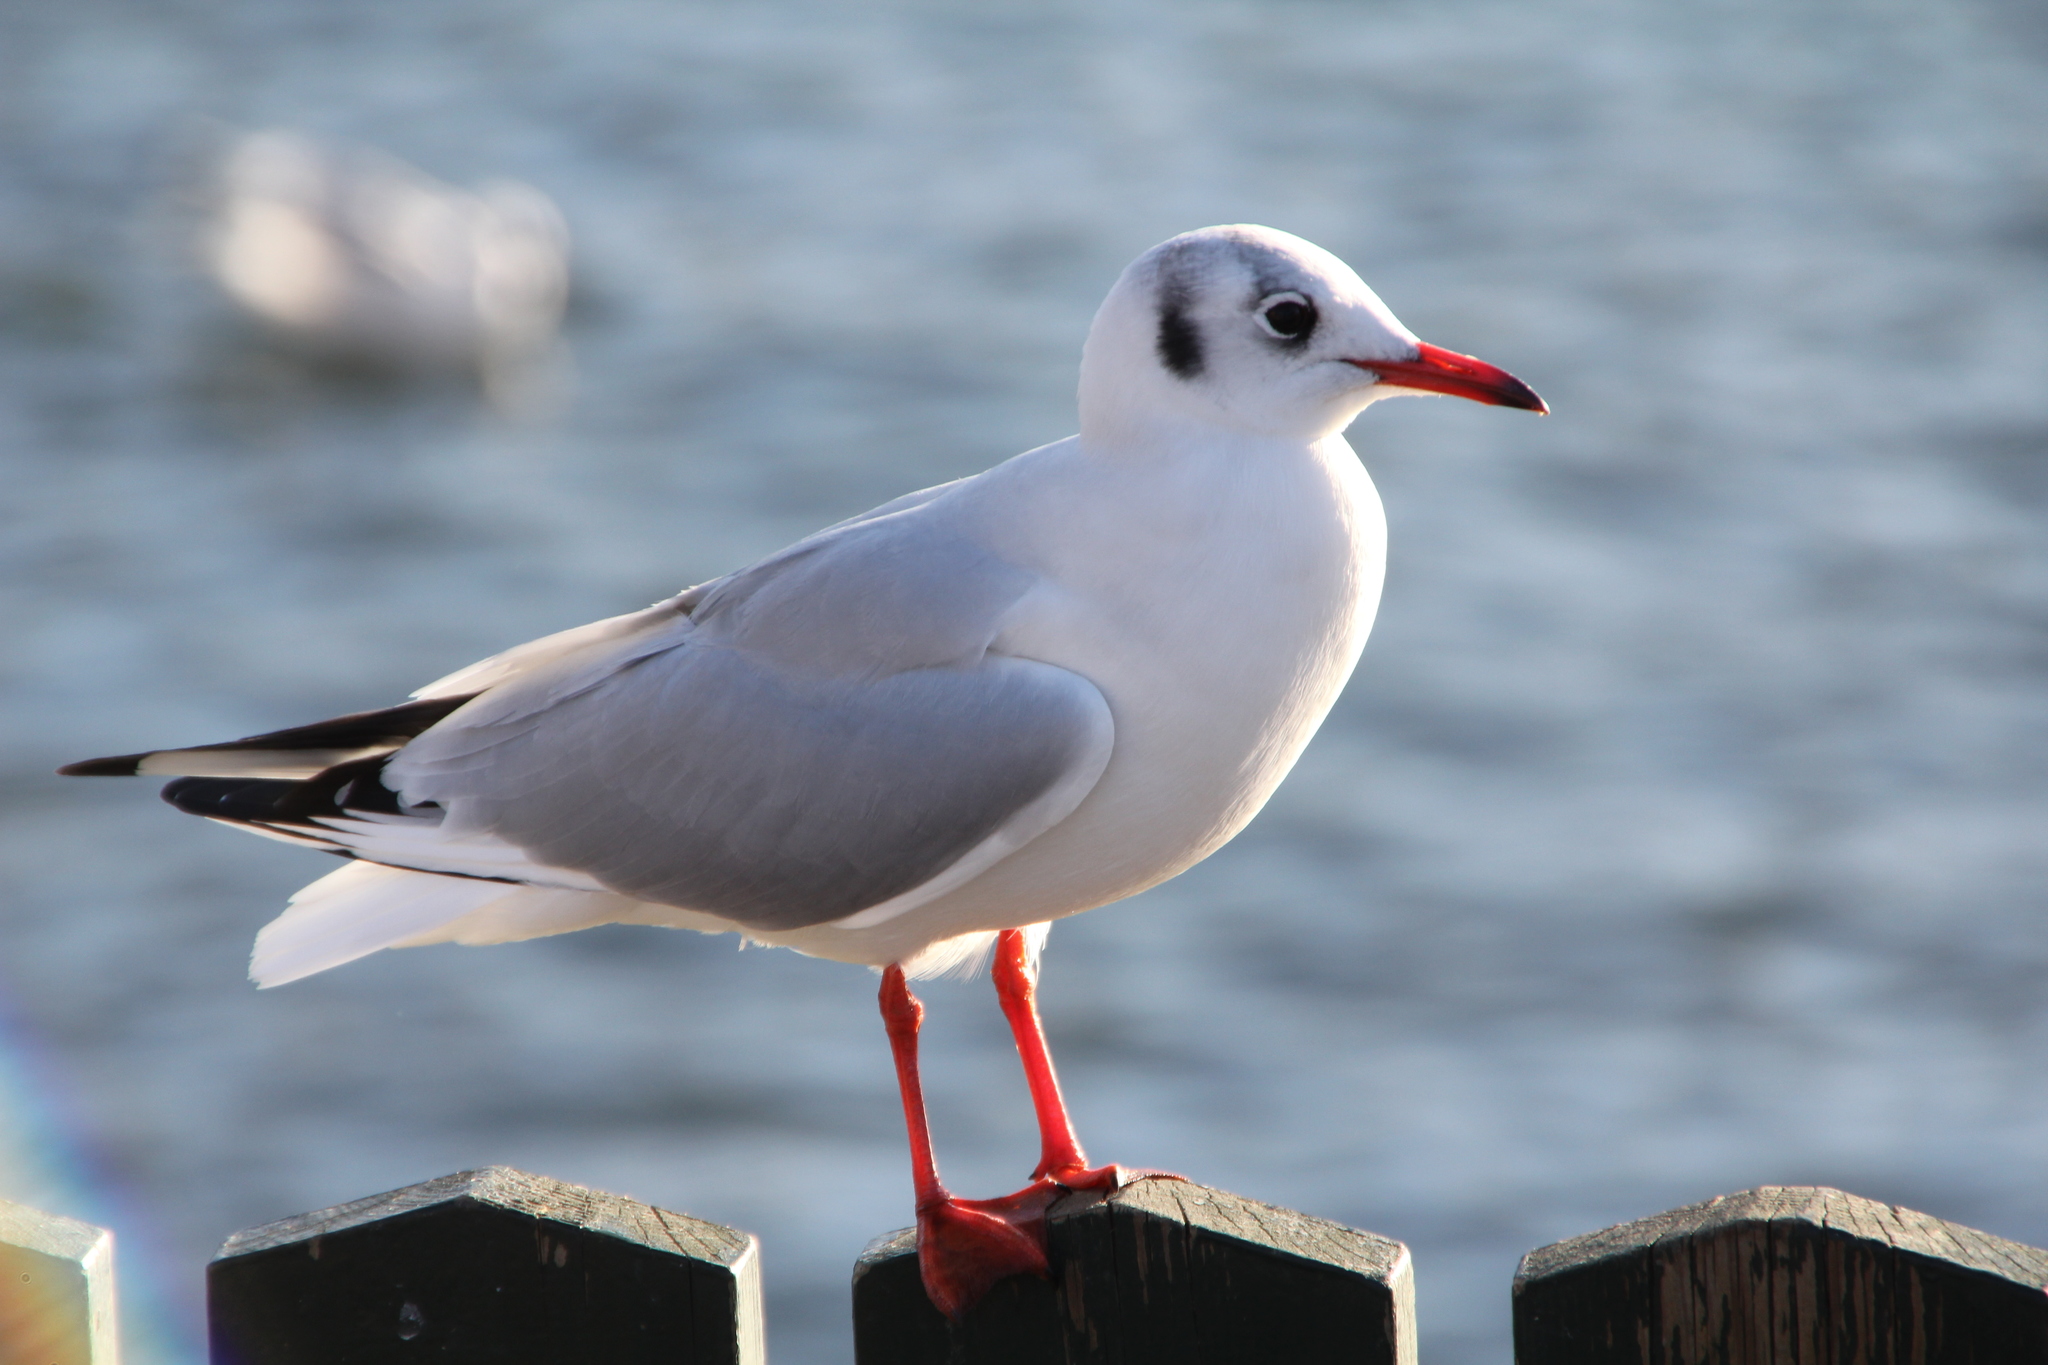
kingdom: Animalia
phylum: Chordata
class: Aves
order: Charadriiformes
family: Laridae
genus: Chroicocephalus
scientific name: Chroicocephalus ridibundus
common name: Black-headed gull
